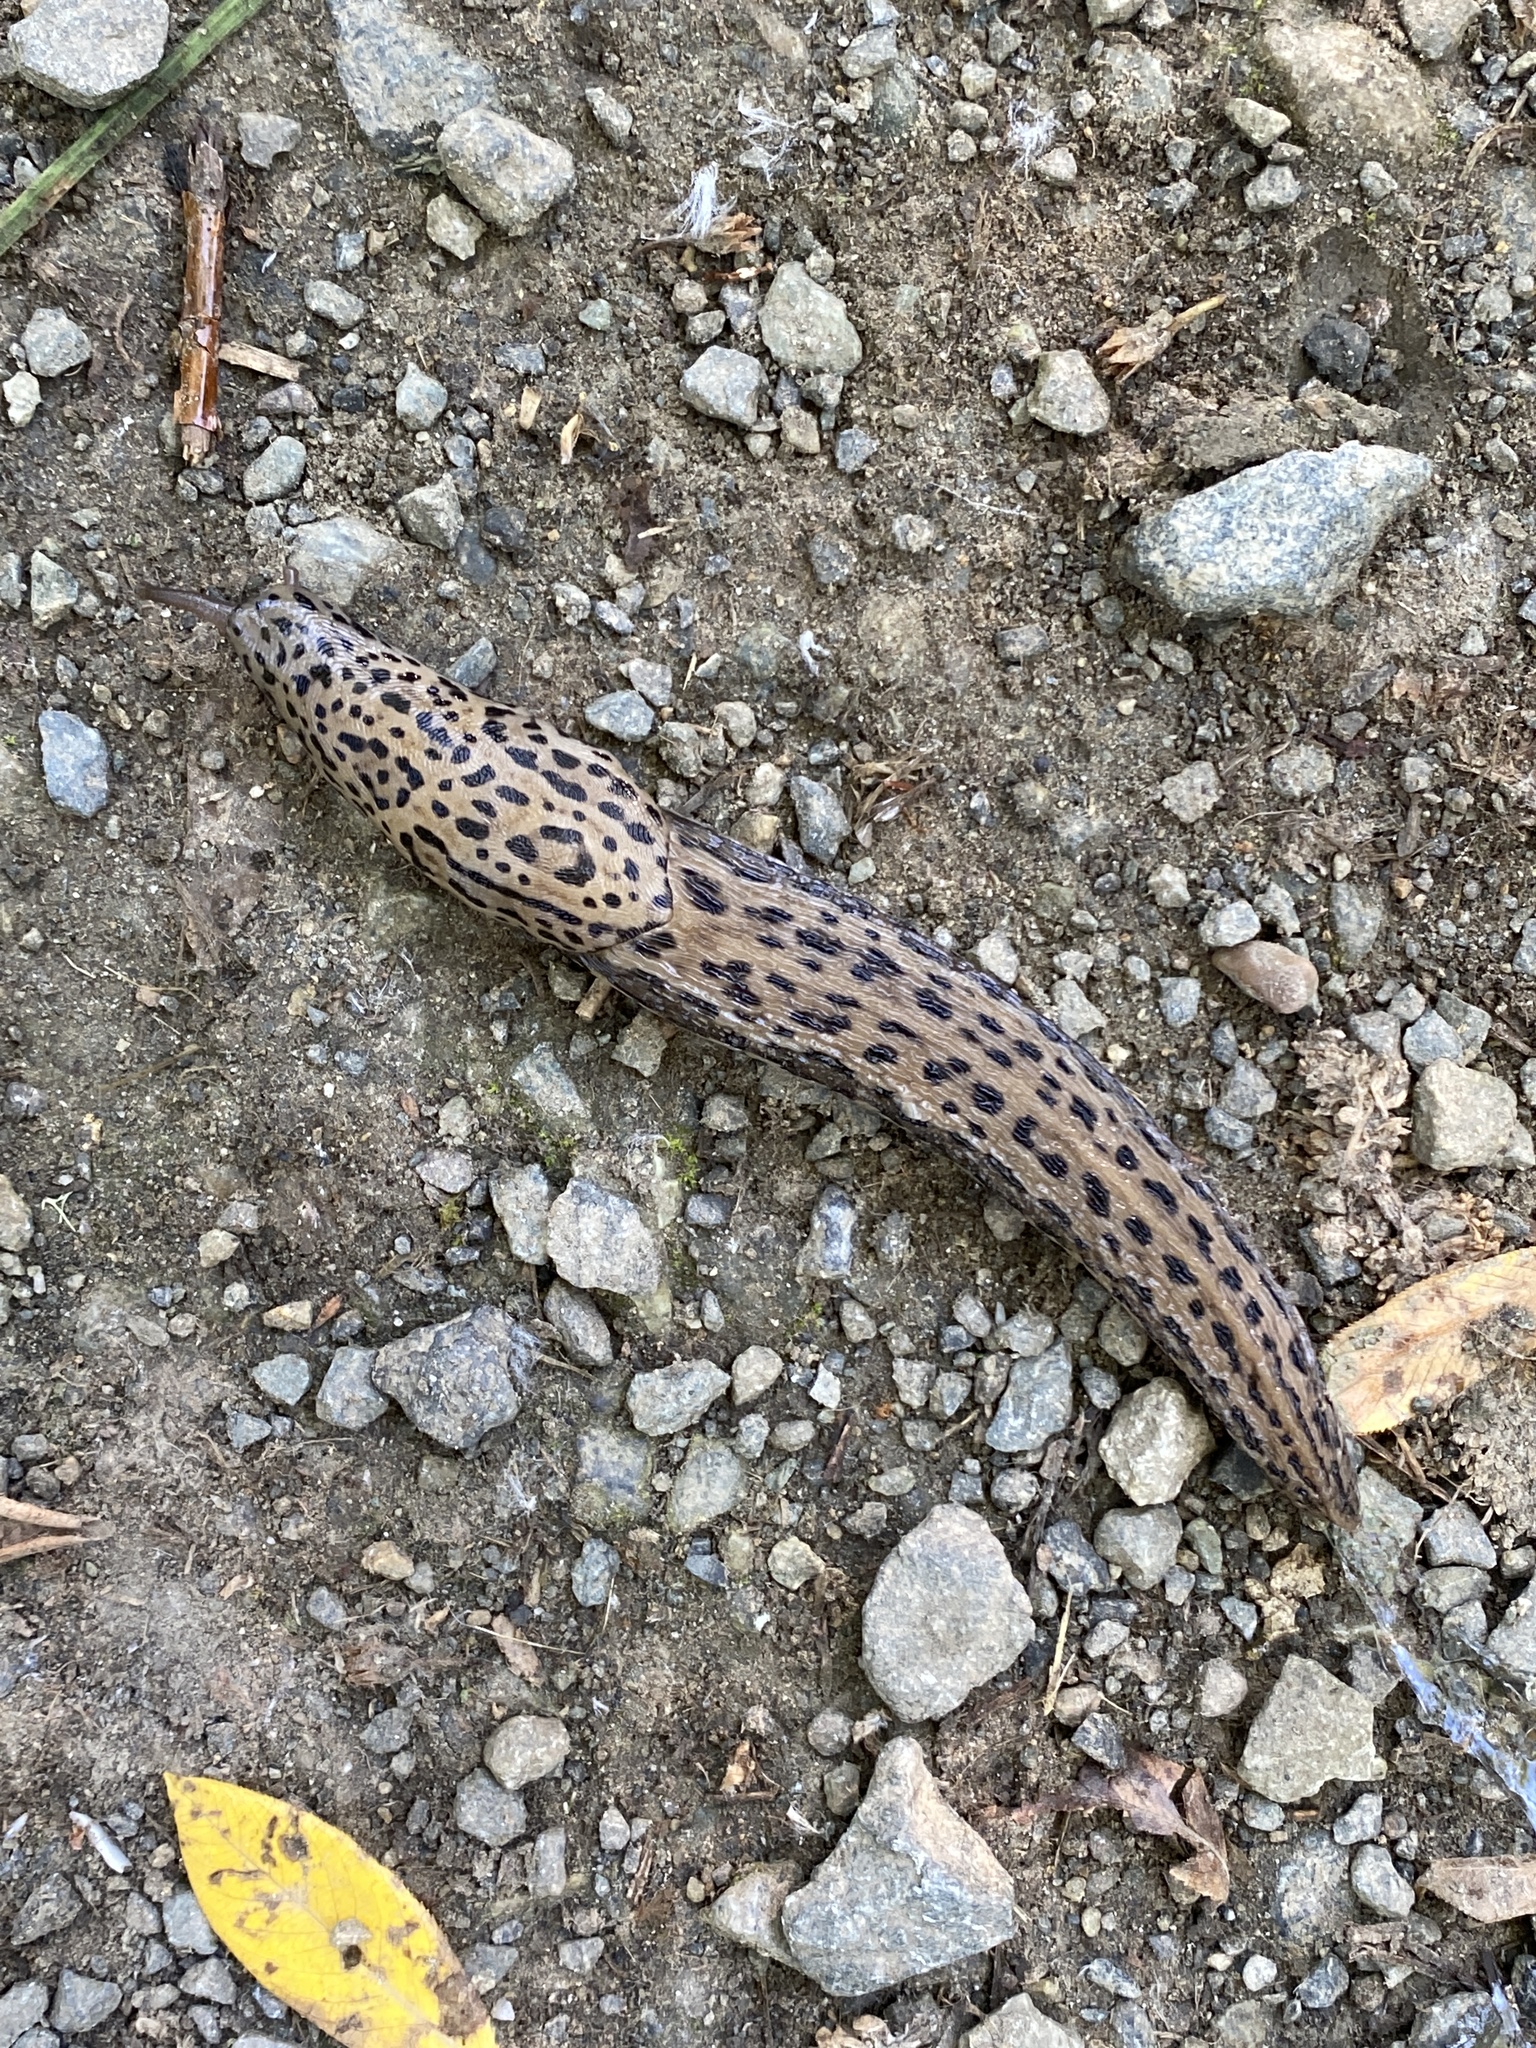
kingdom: Animalia
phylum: Mollusca
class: Gastropoda
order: Stylommatophora
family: Limacidae
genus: Limax
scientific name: Limax maximus
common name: Great grey slug
